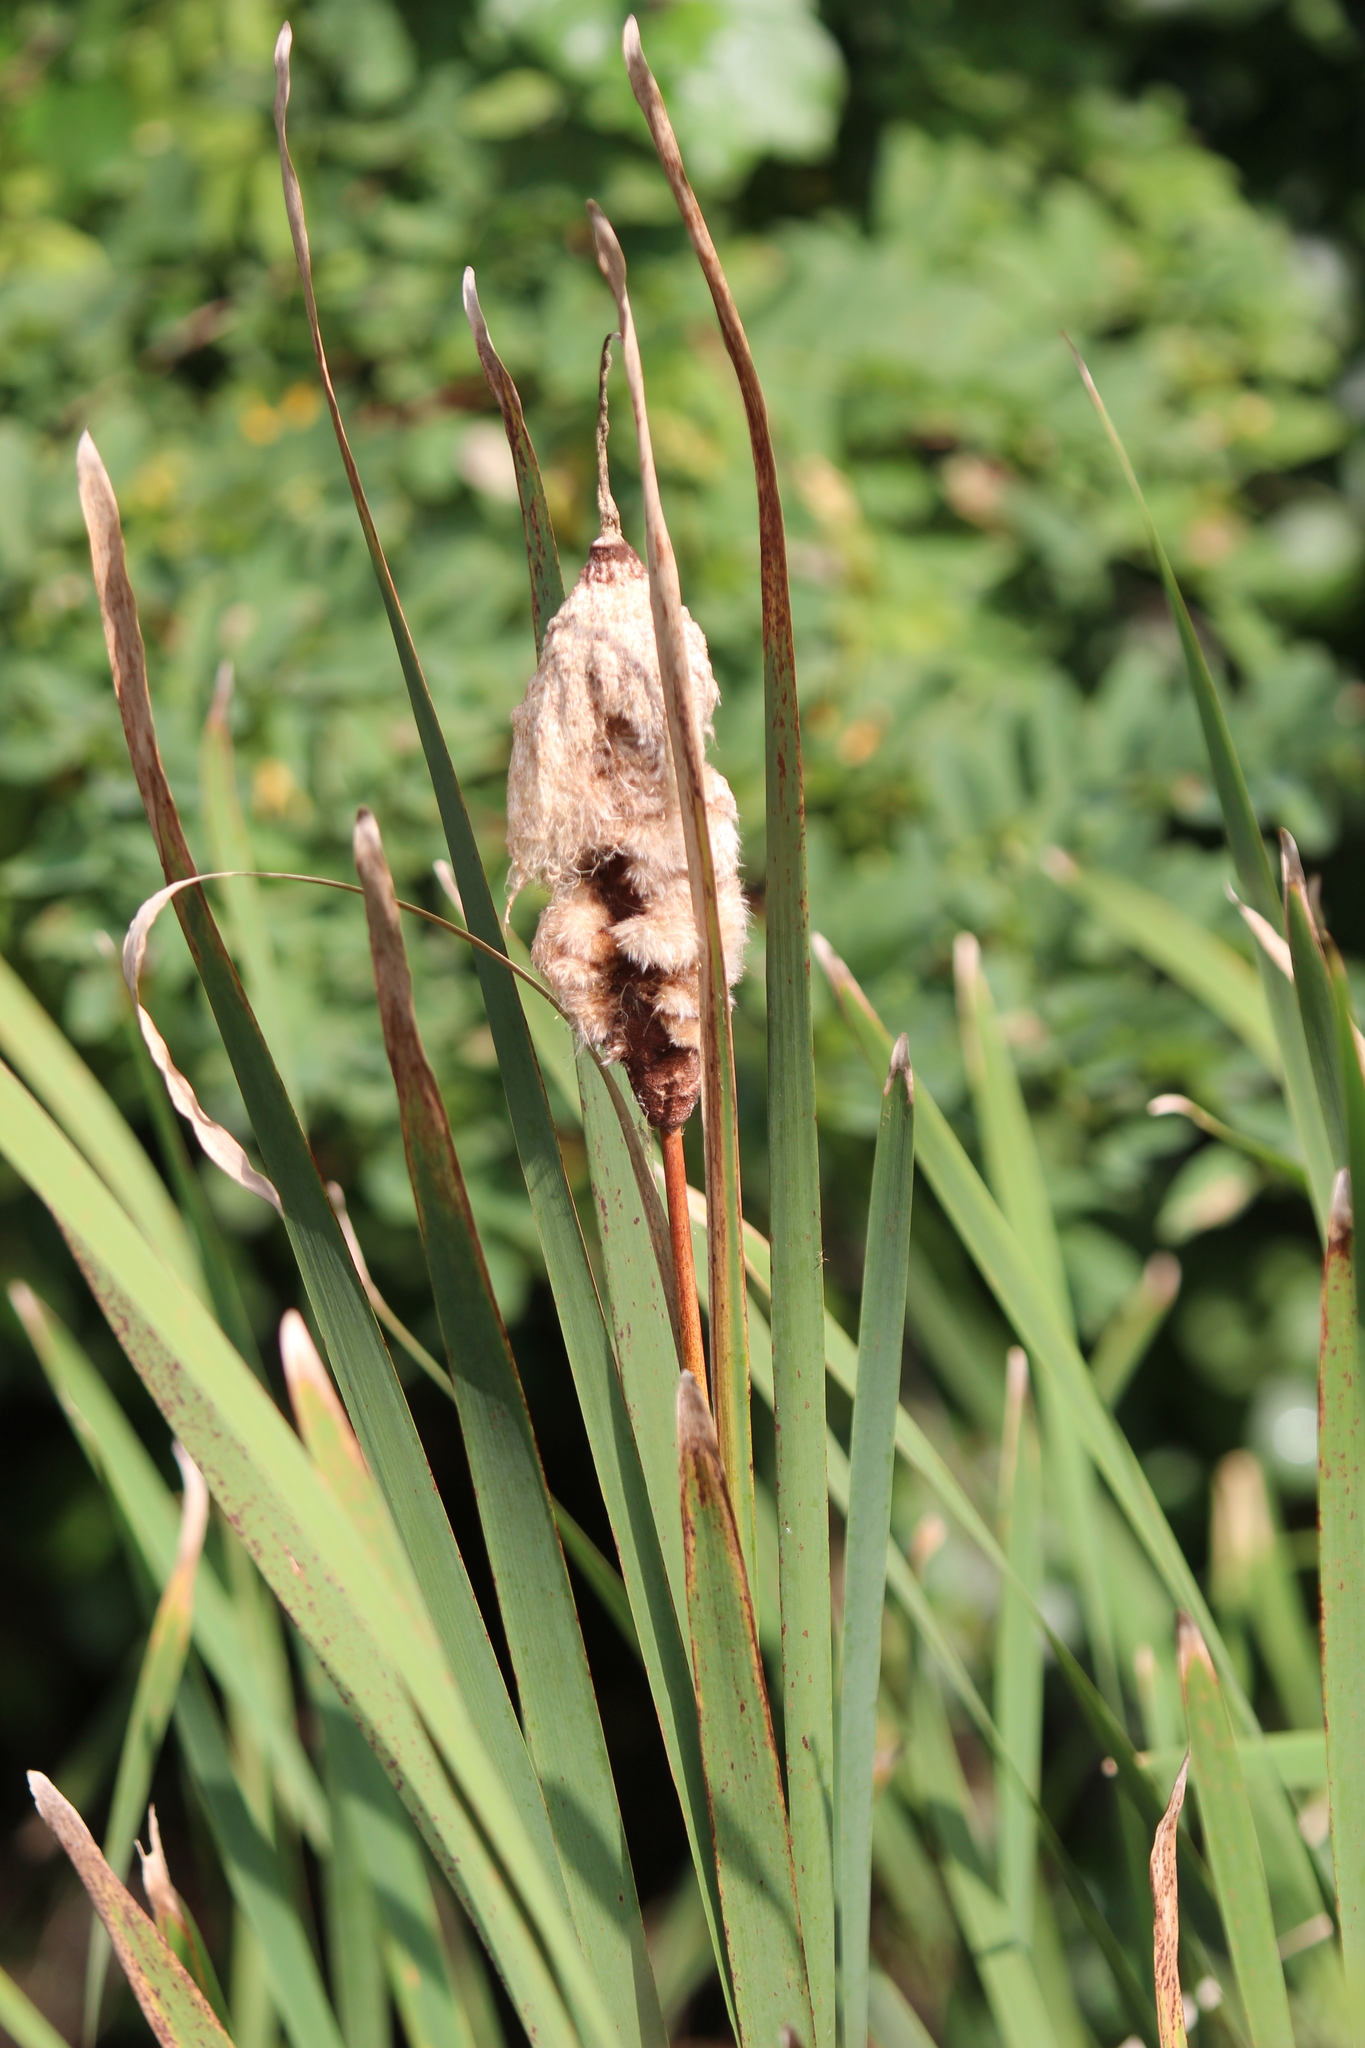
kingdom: Plantae
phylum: Tracheophyta
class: Liliopsida
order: Poales
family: Typhaceae
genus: Typha
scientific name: Typha latifolia
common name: Broadleaf cattail
